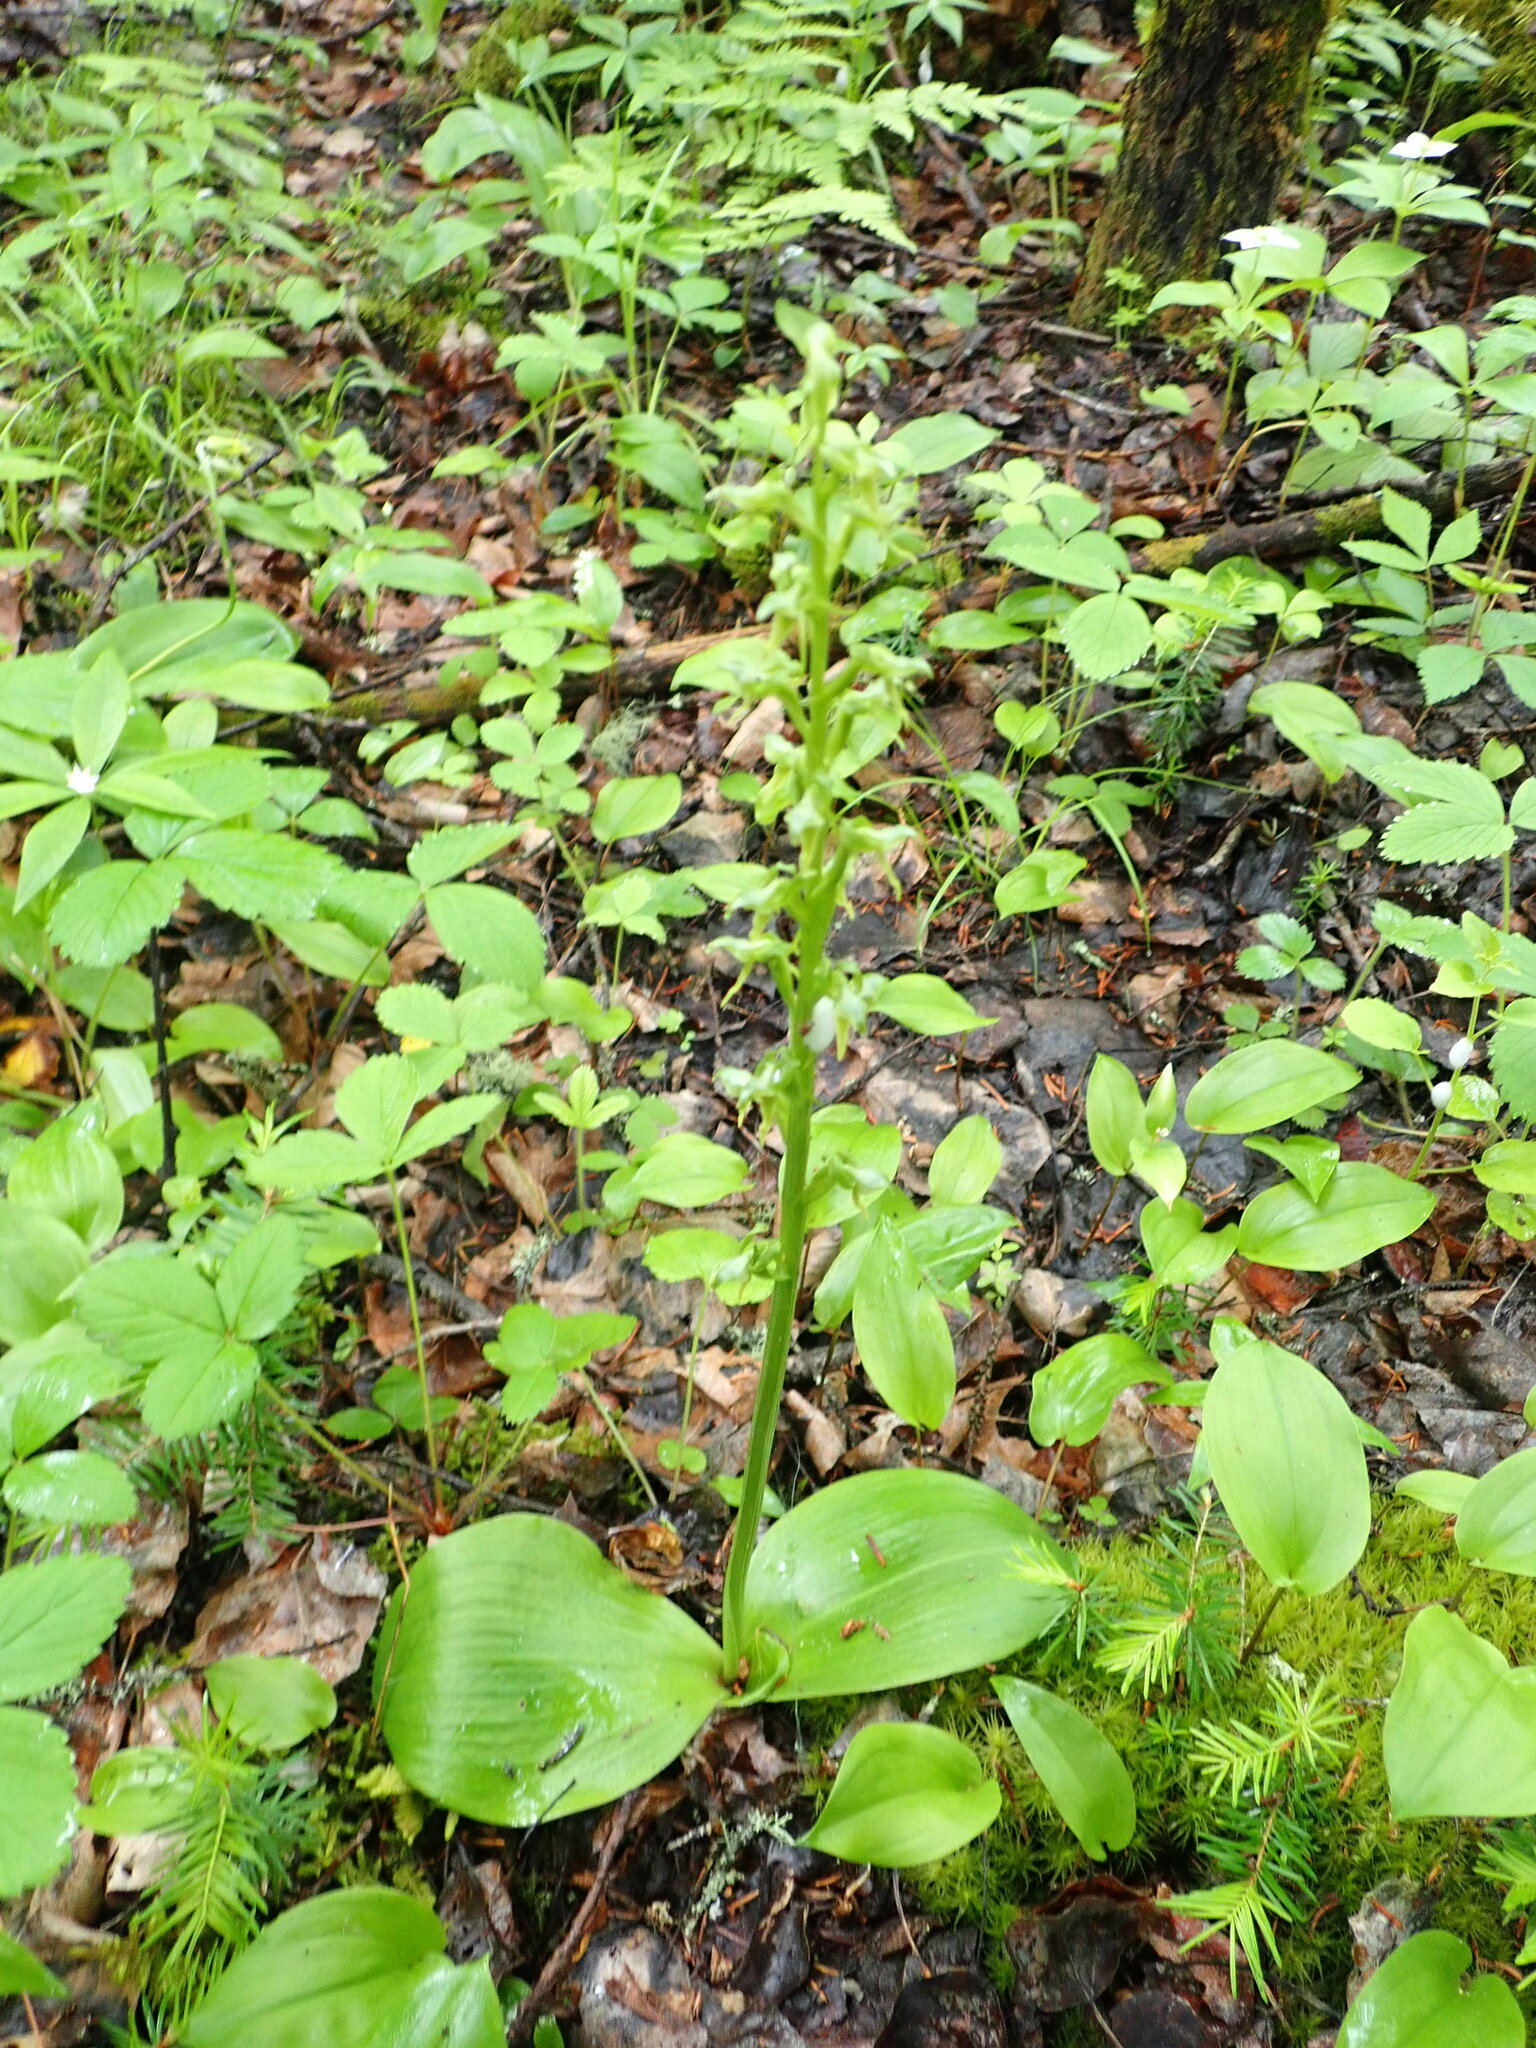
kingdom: Plantae
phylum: Tracheophyta
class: Liliopsida
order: Asparagales
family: Orchidaceae
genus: Platanthera
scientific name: Platanthera hookeri
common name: Hooker's orchid
